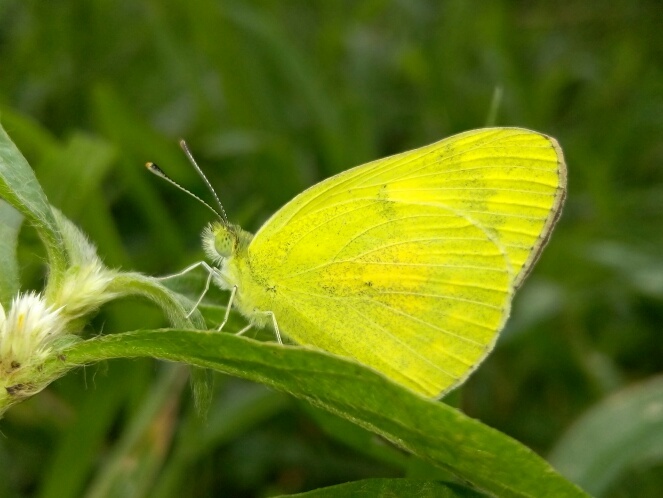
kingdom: Animalia
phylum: Arthropoda
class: Insecta
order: Lepidoptera
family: Pieridae
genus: Colotis
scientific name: Colotis amata
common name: Small salmon arab
